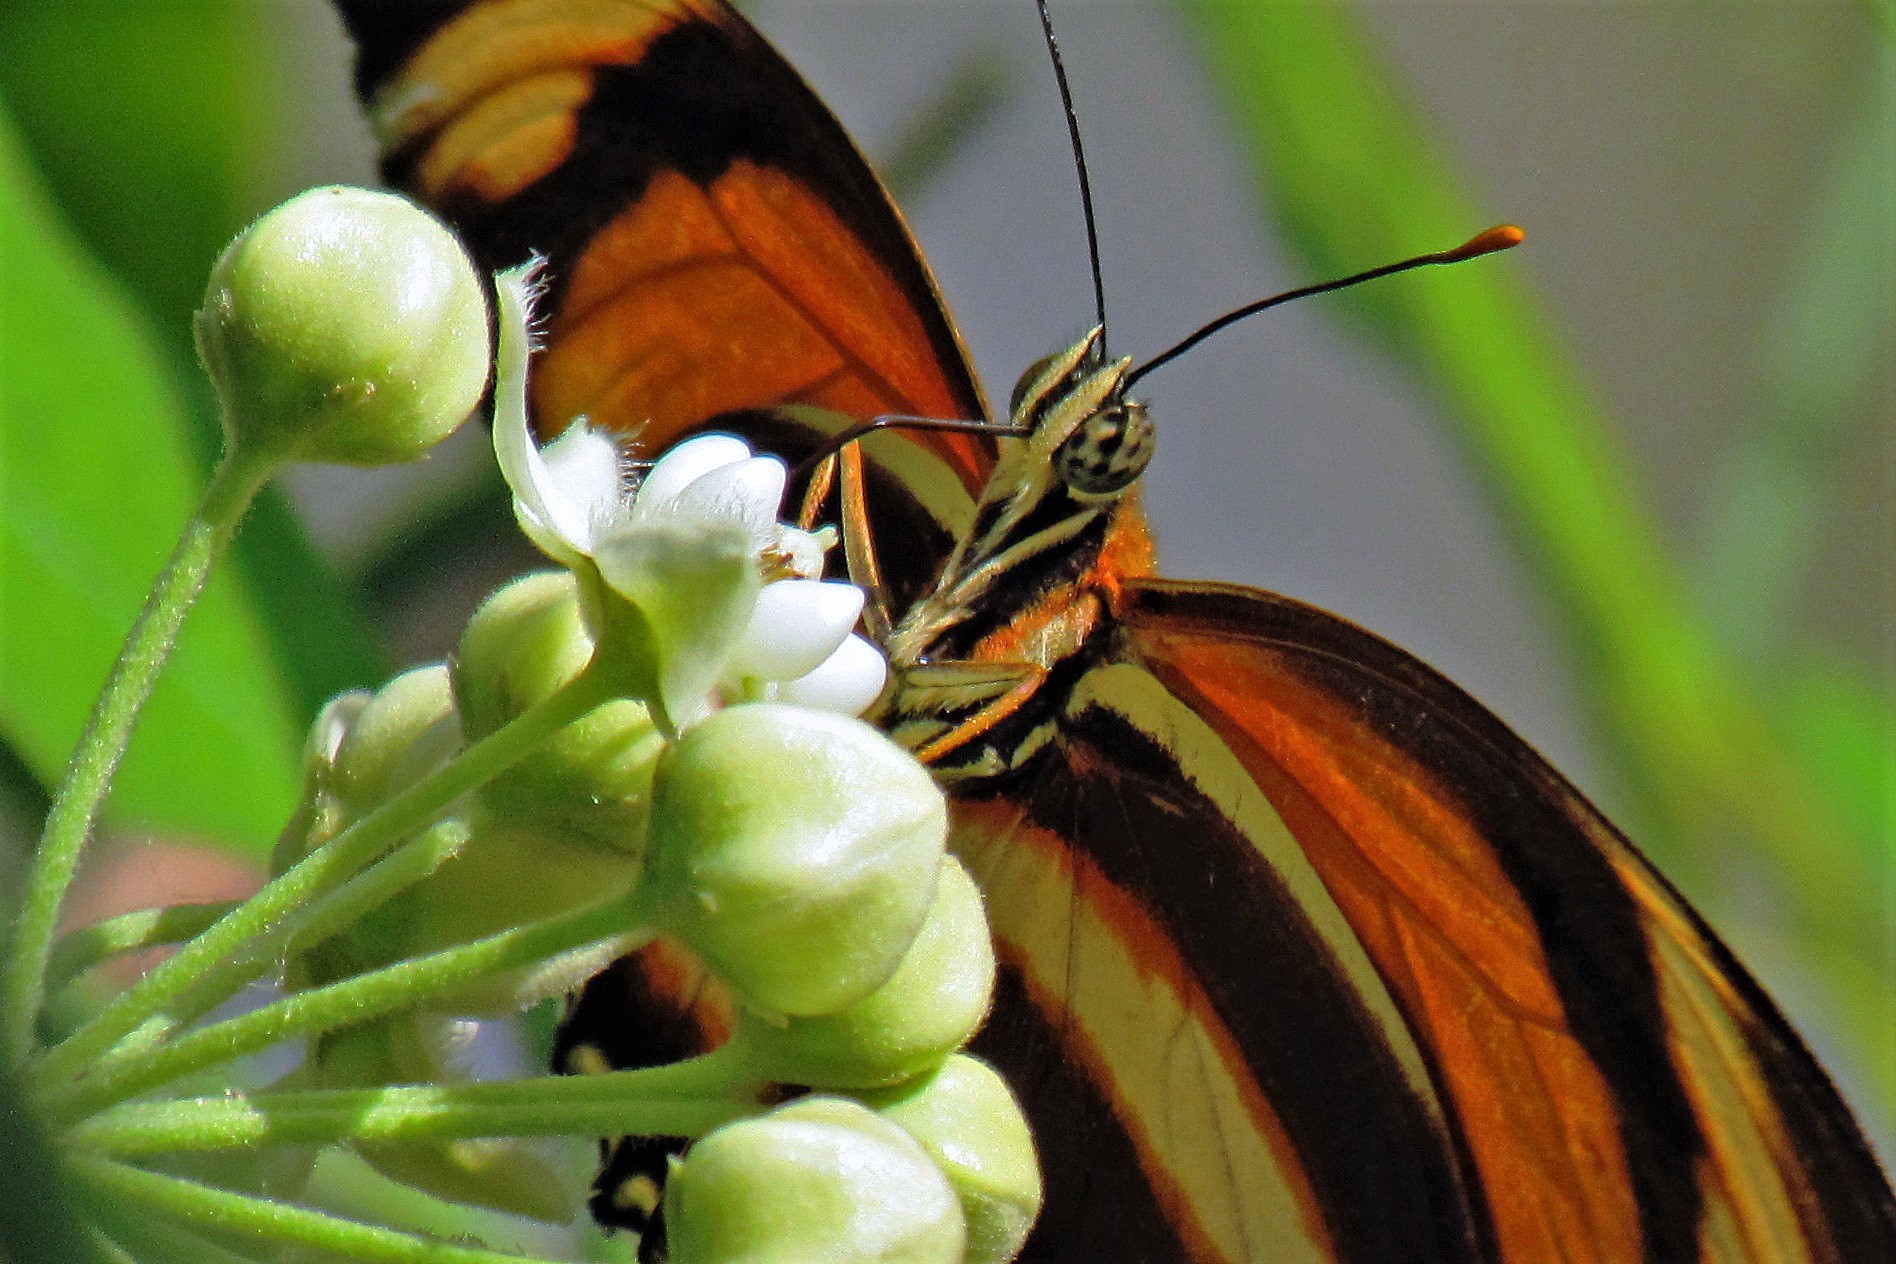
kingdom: Animalia
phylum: Arthropoda
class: Insecta
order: Lepidoptera
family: Nymphalidae
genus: Dryadula
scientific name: Dryadula phaetusa
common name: Banded orange heliconian
